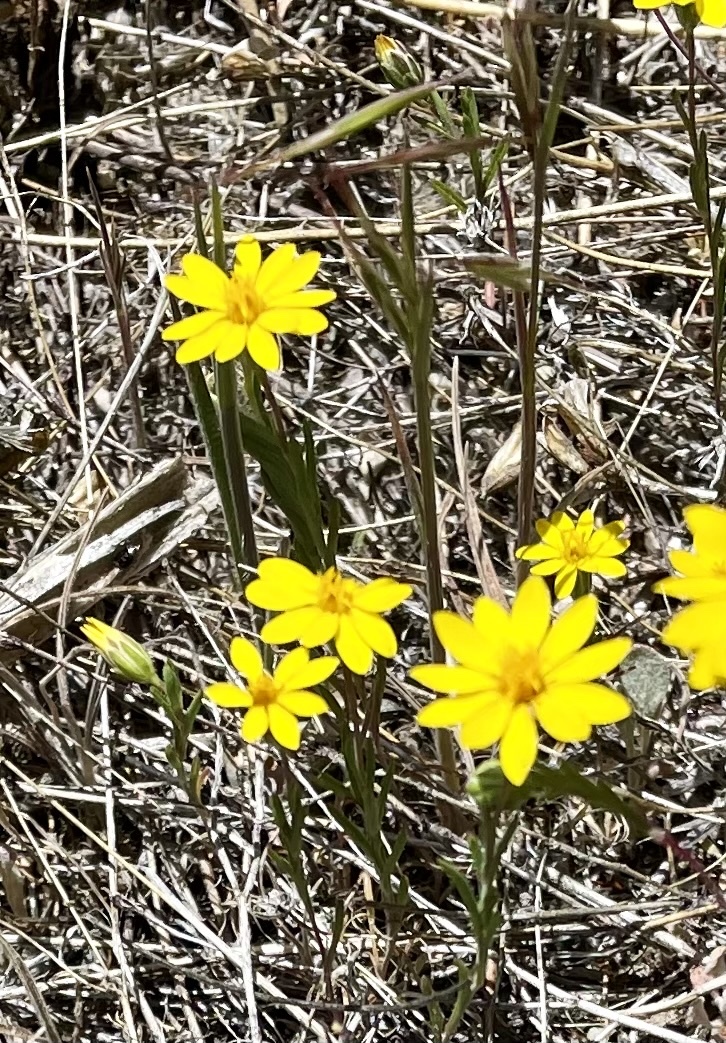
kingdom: Plantae
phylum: Tracheophyta
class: Magnoliopsida
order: Asterales
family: Asteraceae
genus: Pentachaeta
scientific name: Pentachaeta aurea
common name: Golden-ray pentachaeta
